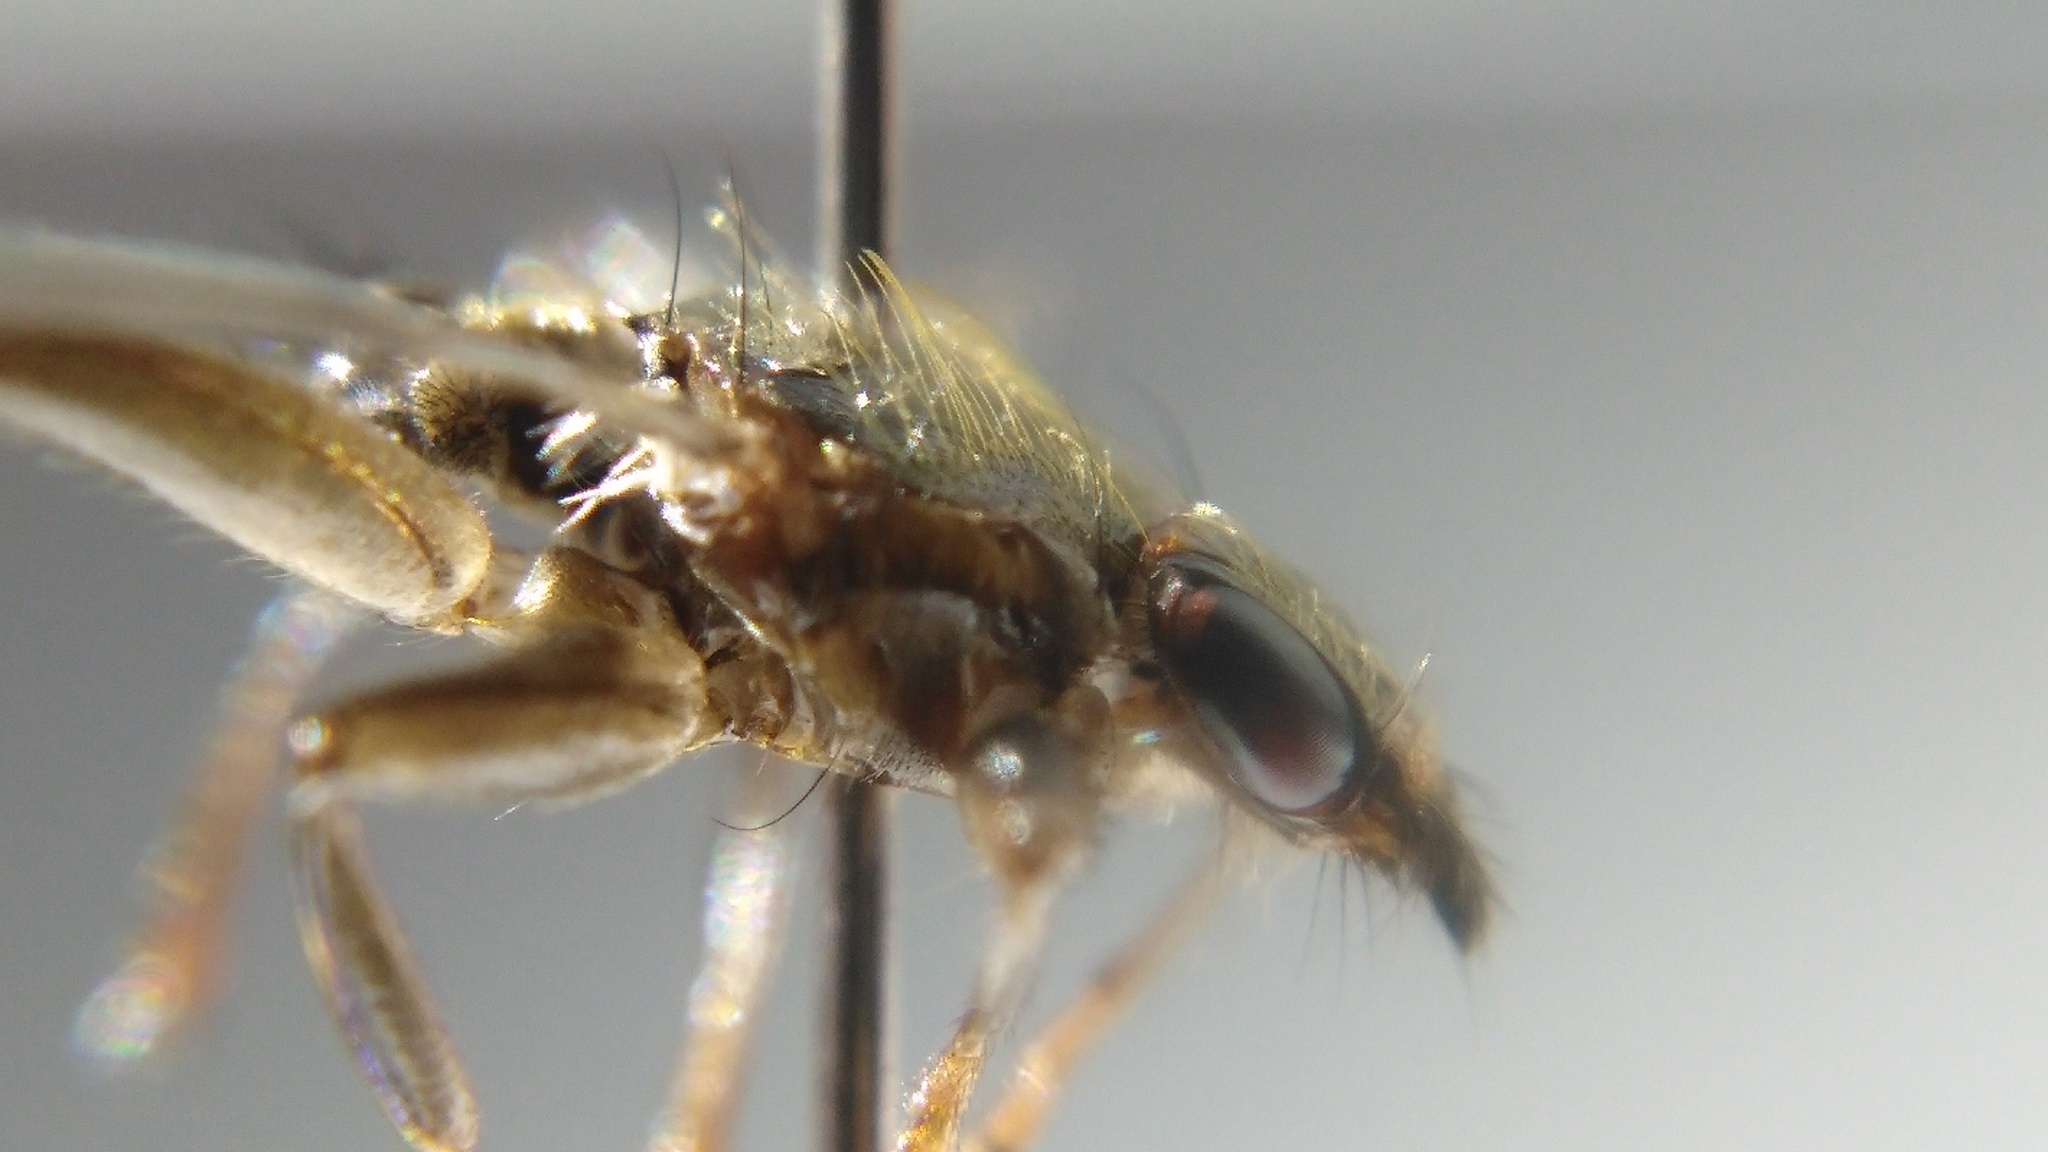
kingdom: Animalia
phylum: Arthropoda
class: Insecta
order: Diptera
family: Hippoboscidae
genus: Pseudolynchia
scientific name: Pseudolynchia canariensis
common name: Louse fly
